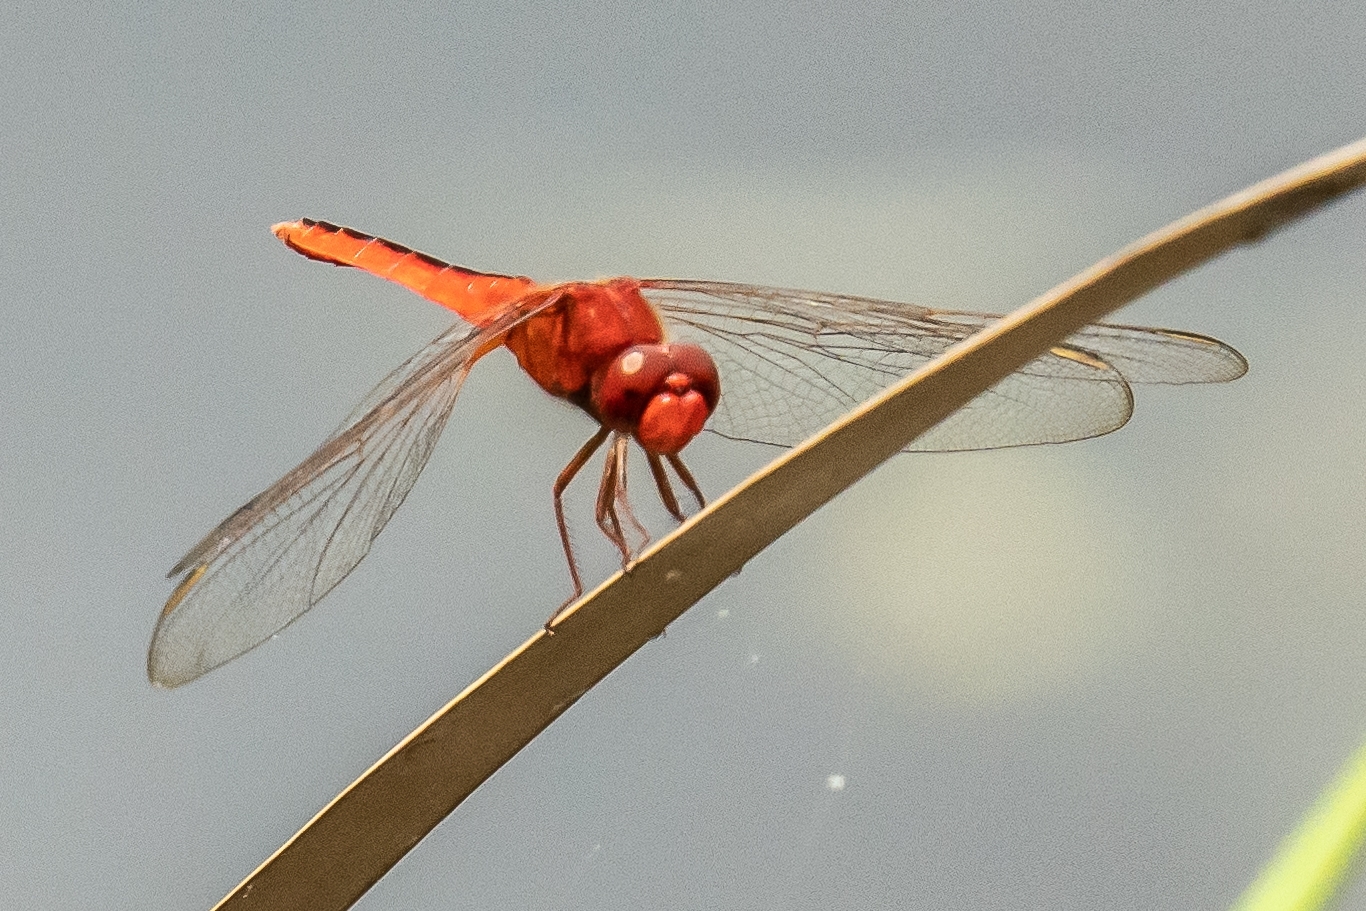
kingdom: Animalia
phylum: Arthropoda
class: Insecta
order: Odonata
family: Libellulidae
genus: Crocothemis
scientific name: Crocothemis servilia
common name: Scarlet skimmer
